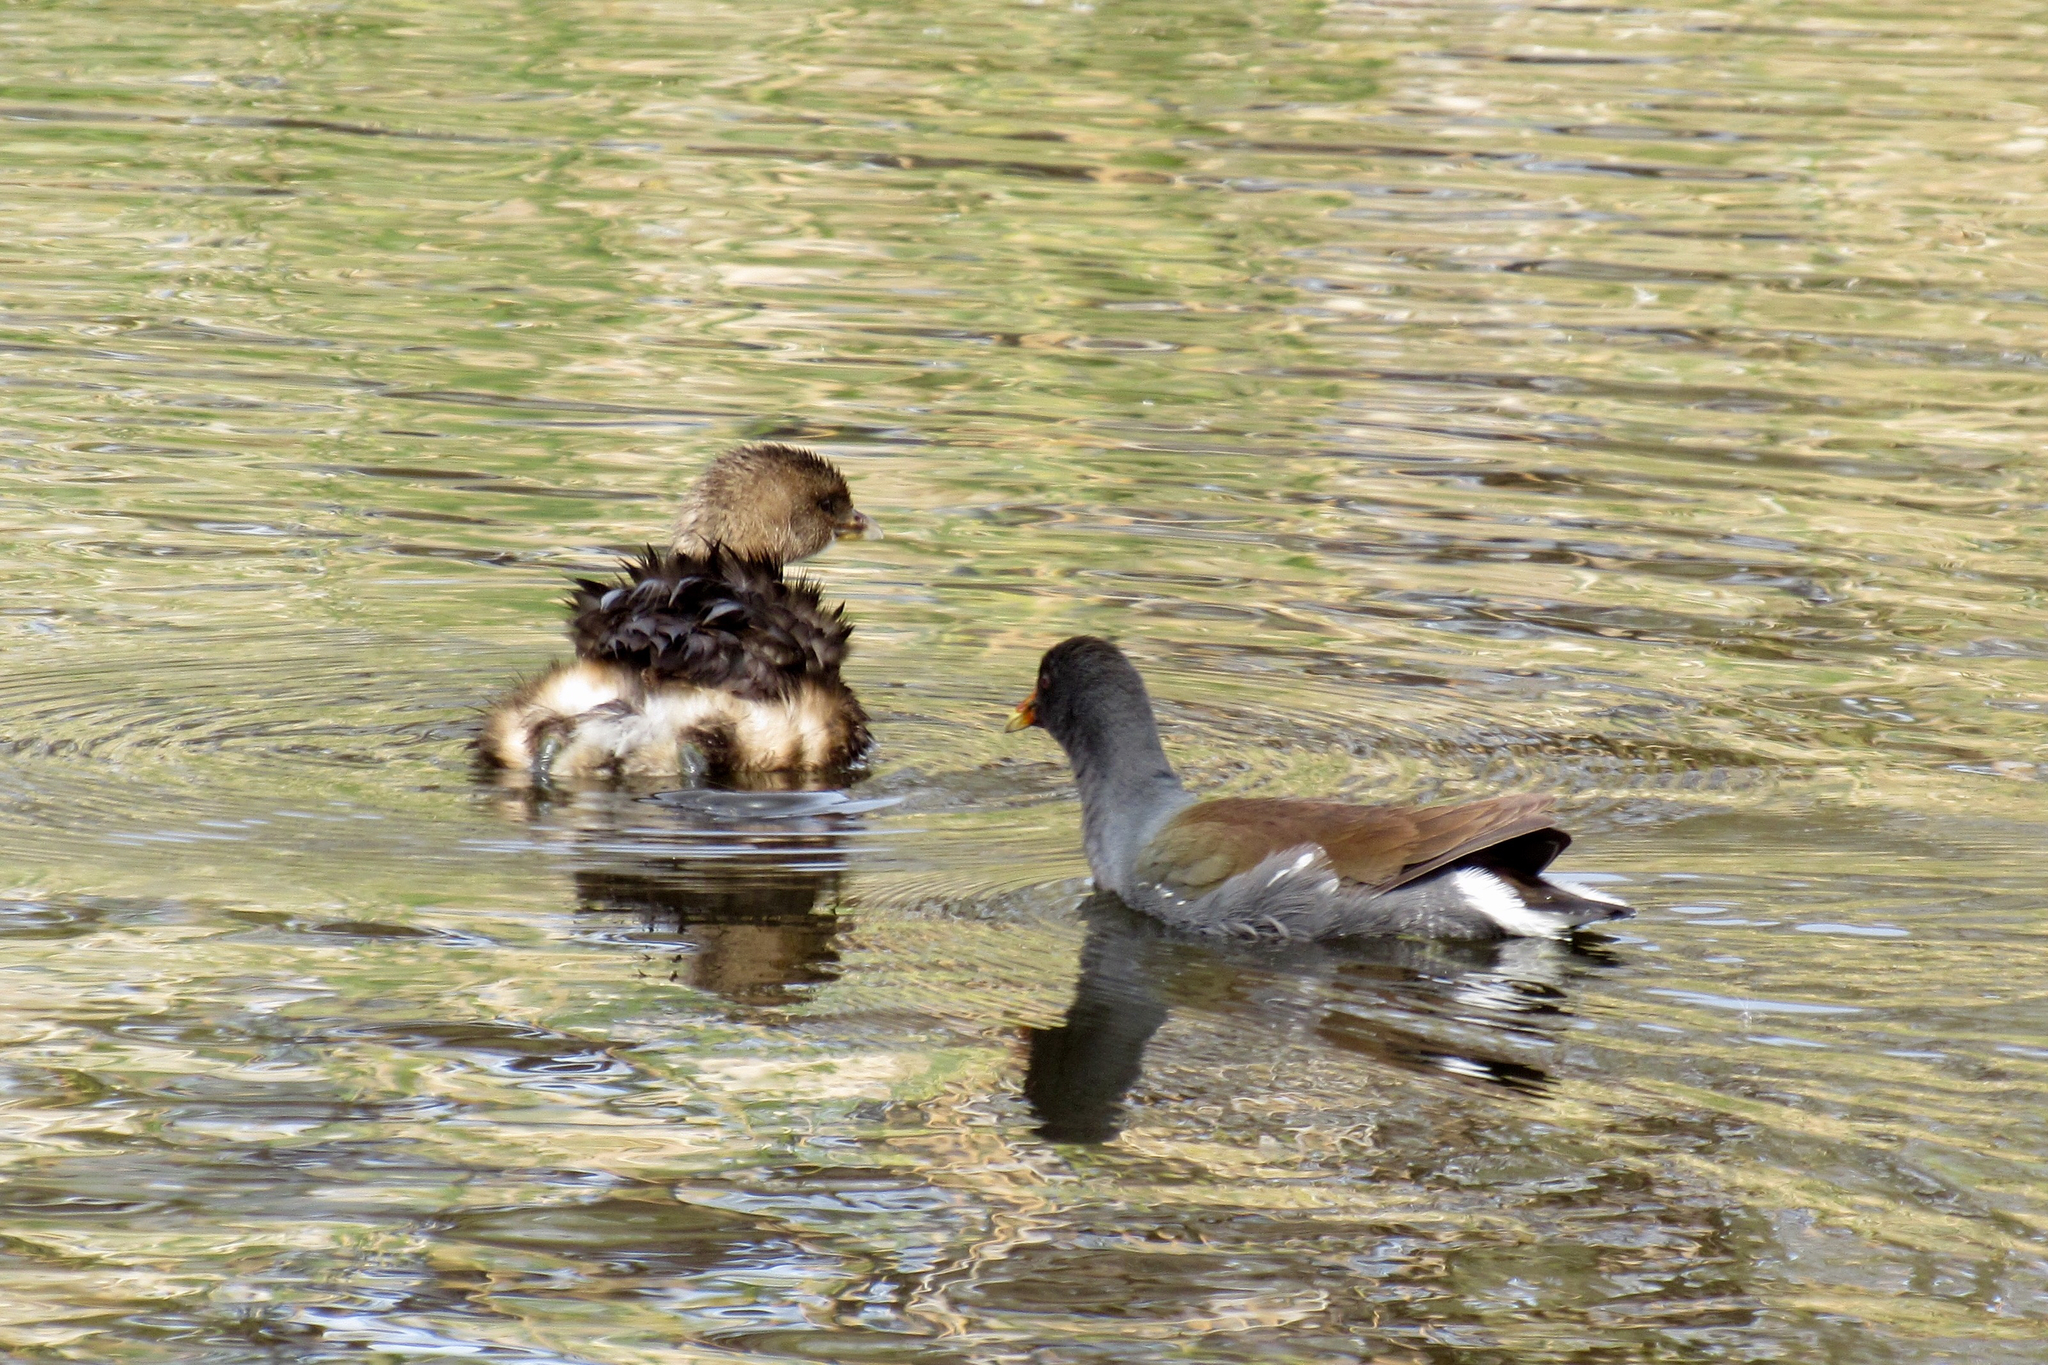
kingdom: Animalia
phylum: Chordata
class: Aves
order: Podicipediformes
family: Podicipedidae
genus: Podilymbus
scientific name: Podilymbus podiceps
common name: Pied-billed grebe
